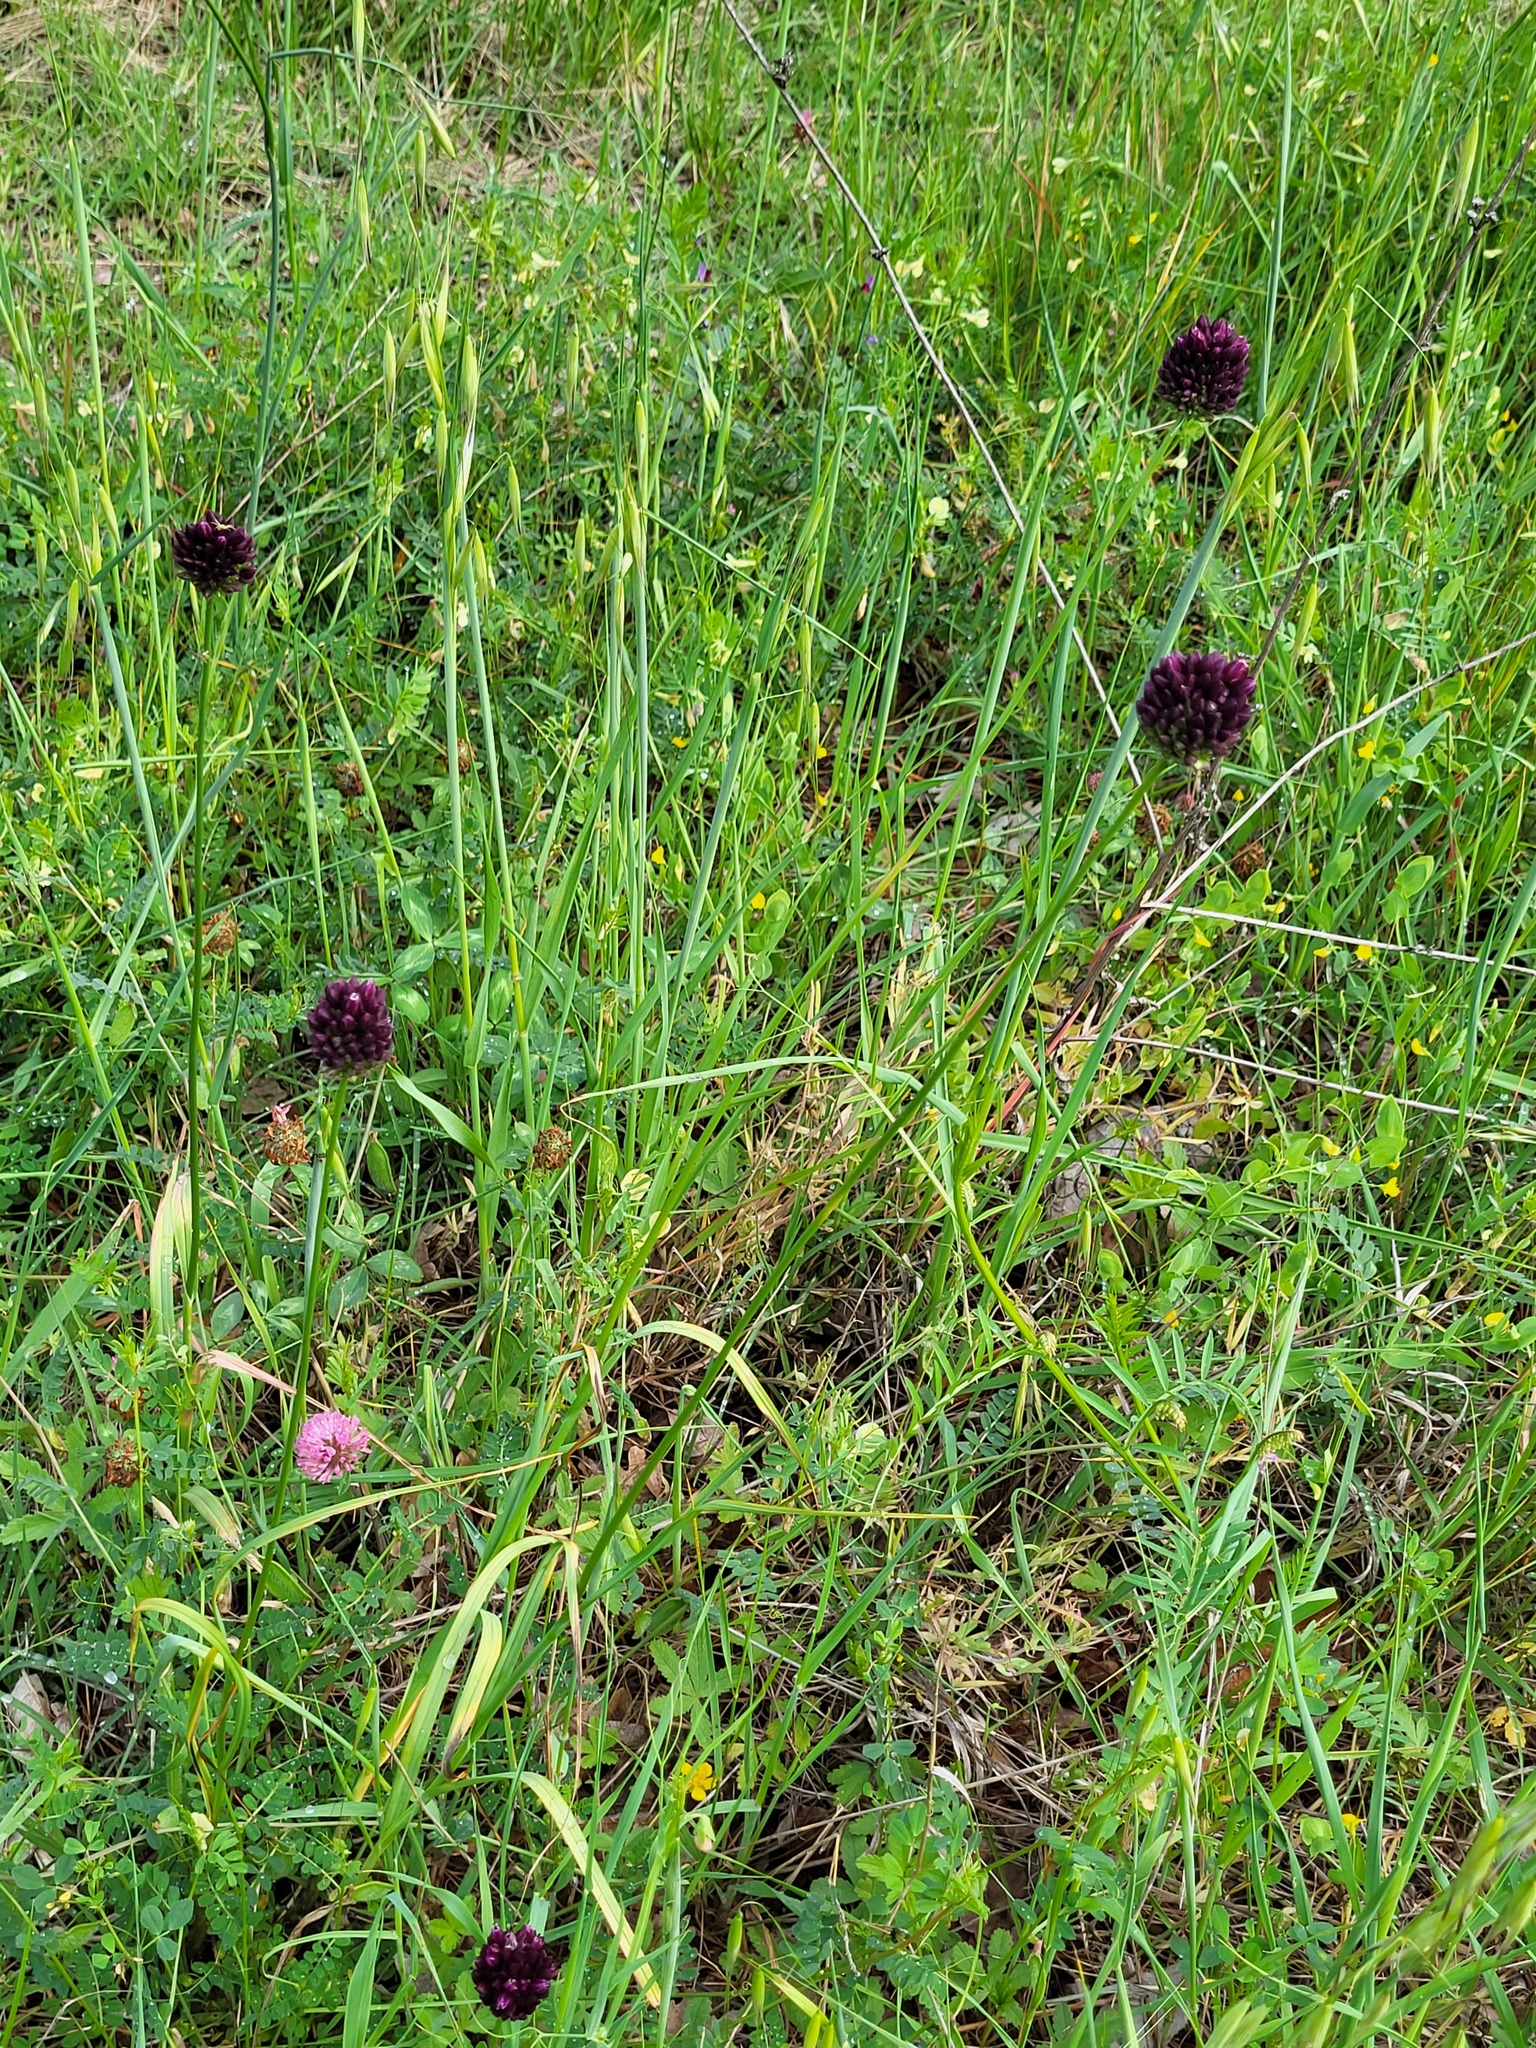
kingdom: Plantae
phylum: Tracheophyta
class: Liliopsida
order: Asparagales
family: Amaryllidaceae
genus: Allium
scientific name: Allium rotundum
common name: Sand leek
